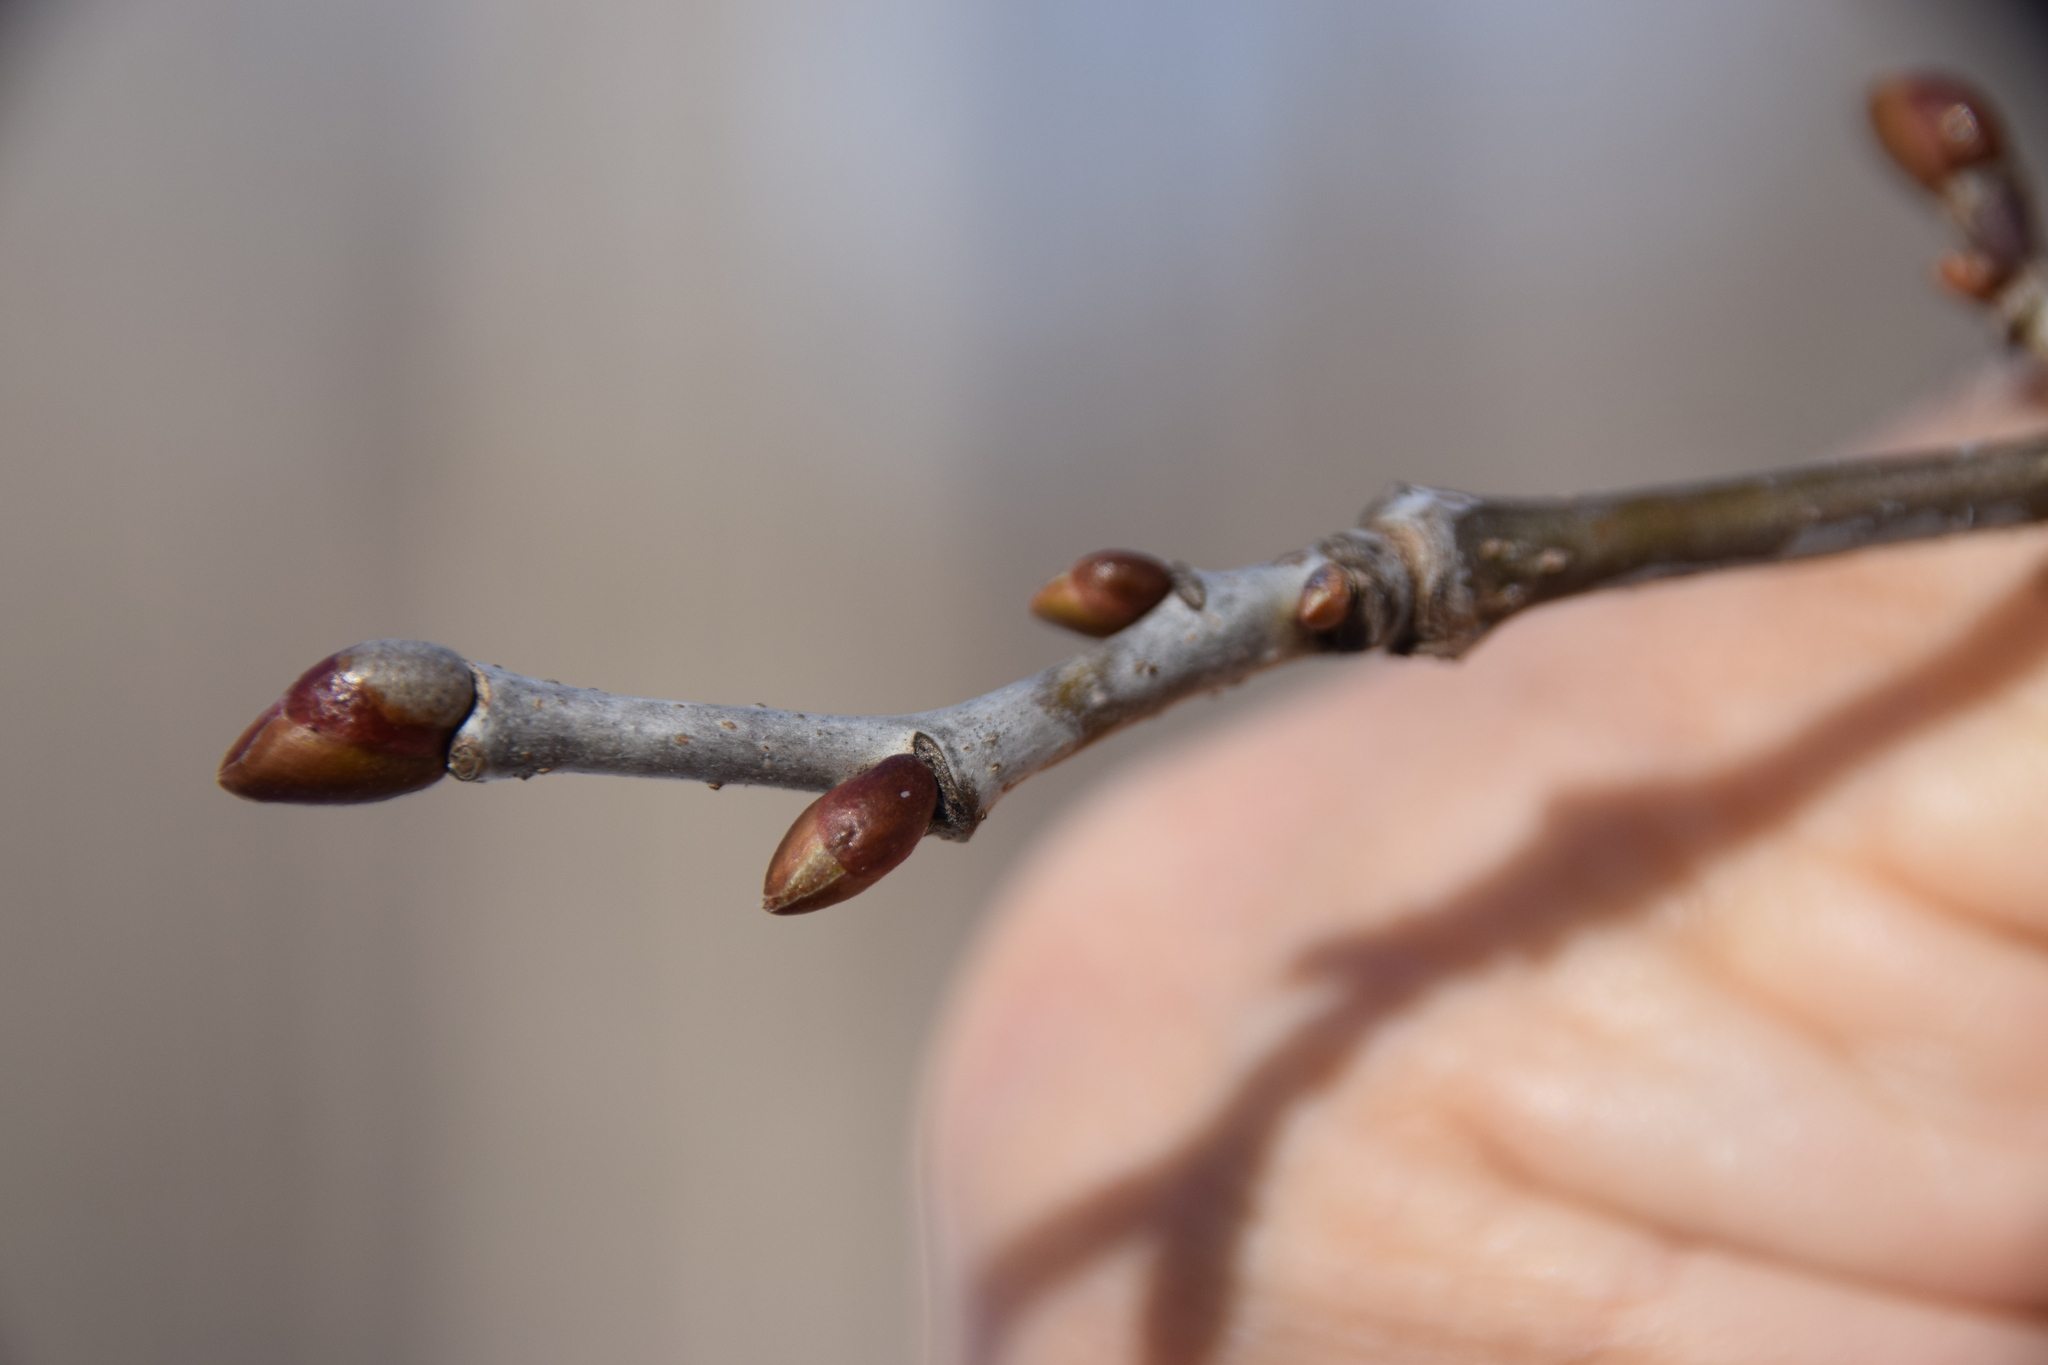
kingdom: Plantae
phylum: Tracheophyta
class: Magnoliopsida
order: Malvales
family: Malvaceae
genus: Tilia
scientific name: Tilia americana
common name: Basswood
